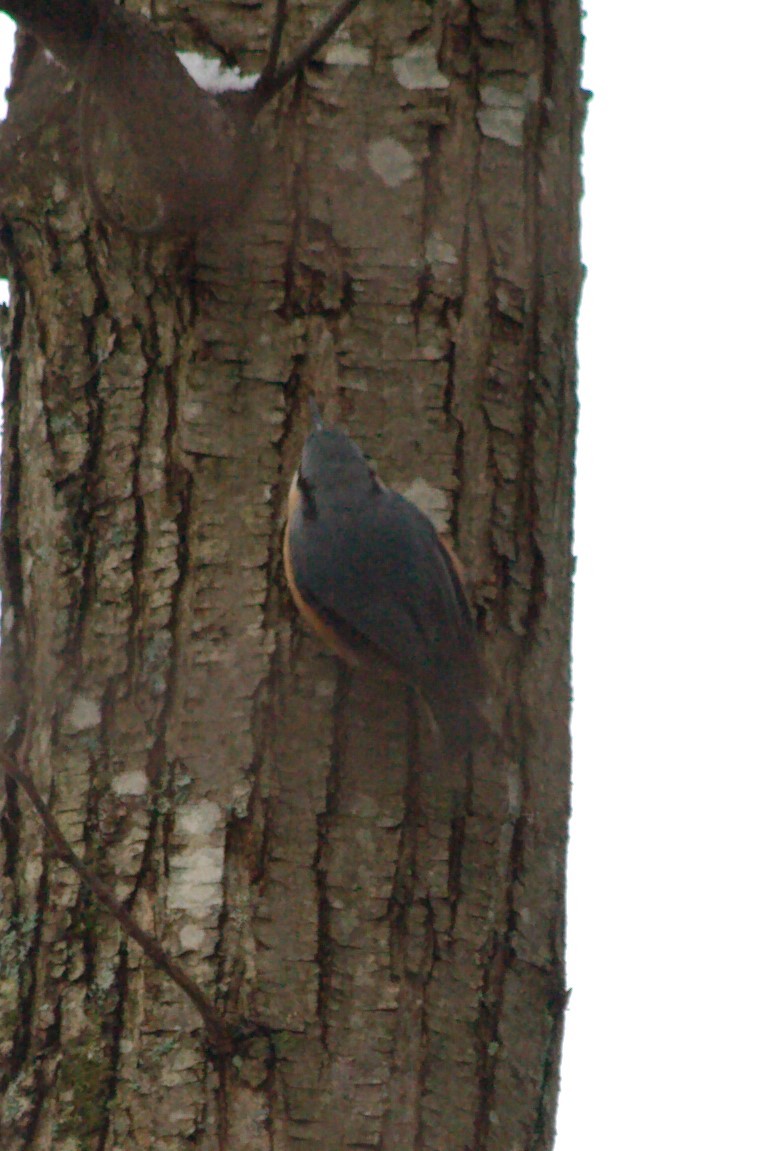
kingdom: Animalia
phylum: Chordata
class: Aves
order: Passeriformes
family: Sittidae
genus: Sitta
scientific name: Sitta europaea
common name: Eurasian nuthatch
